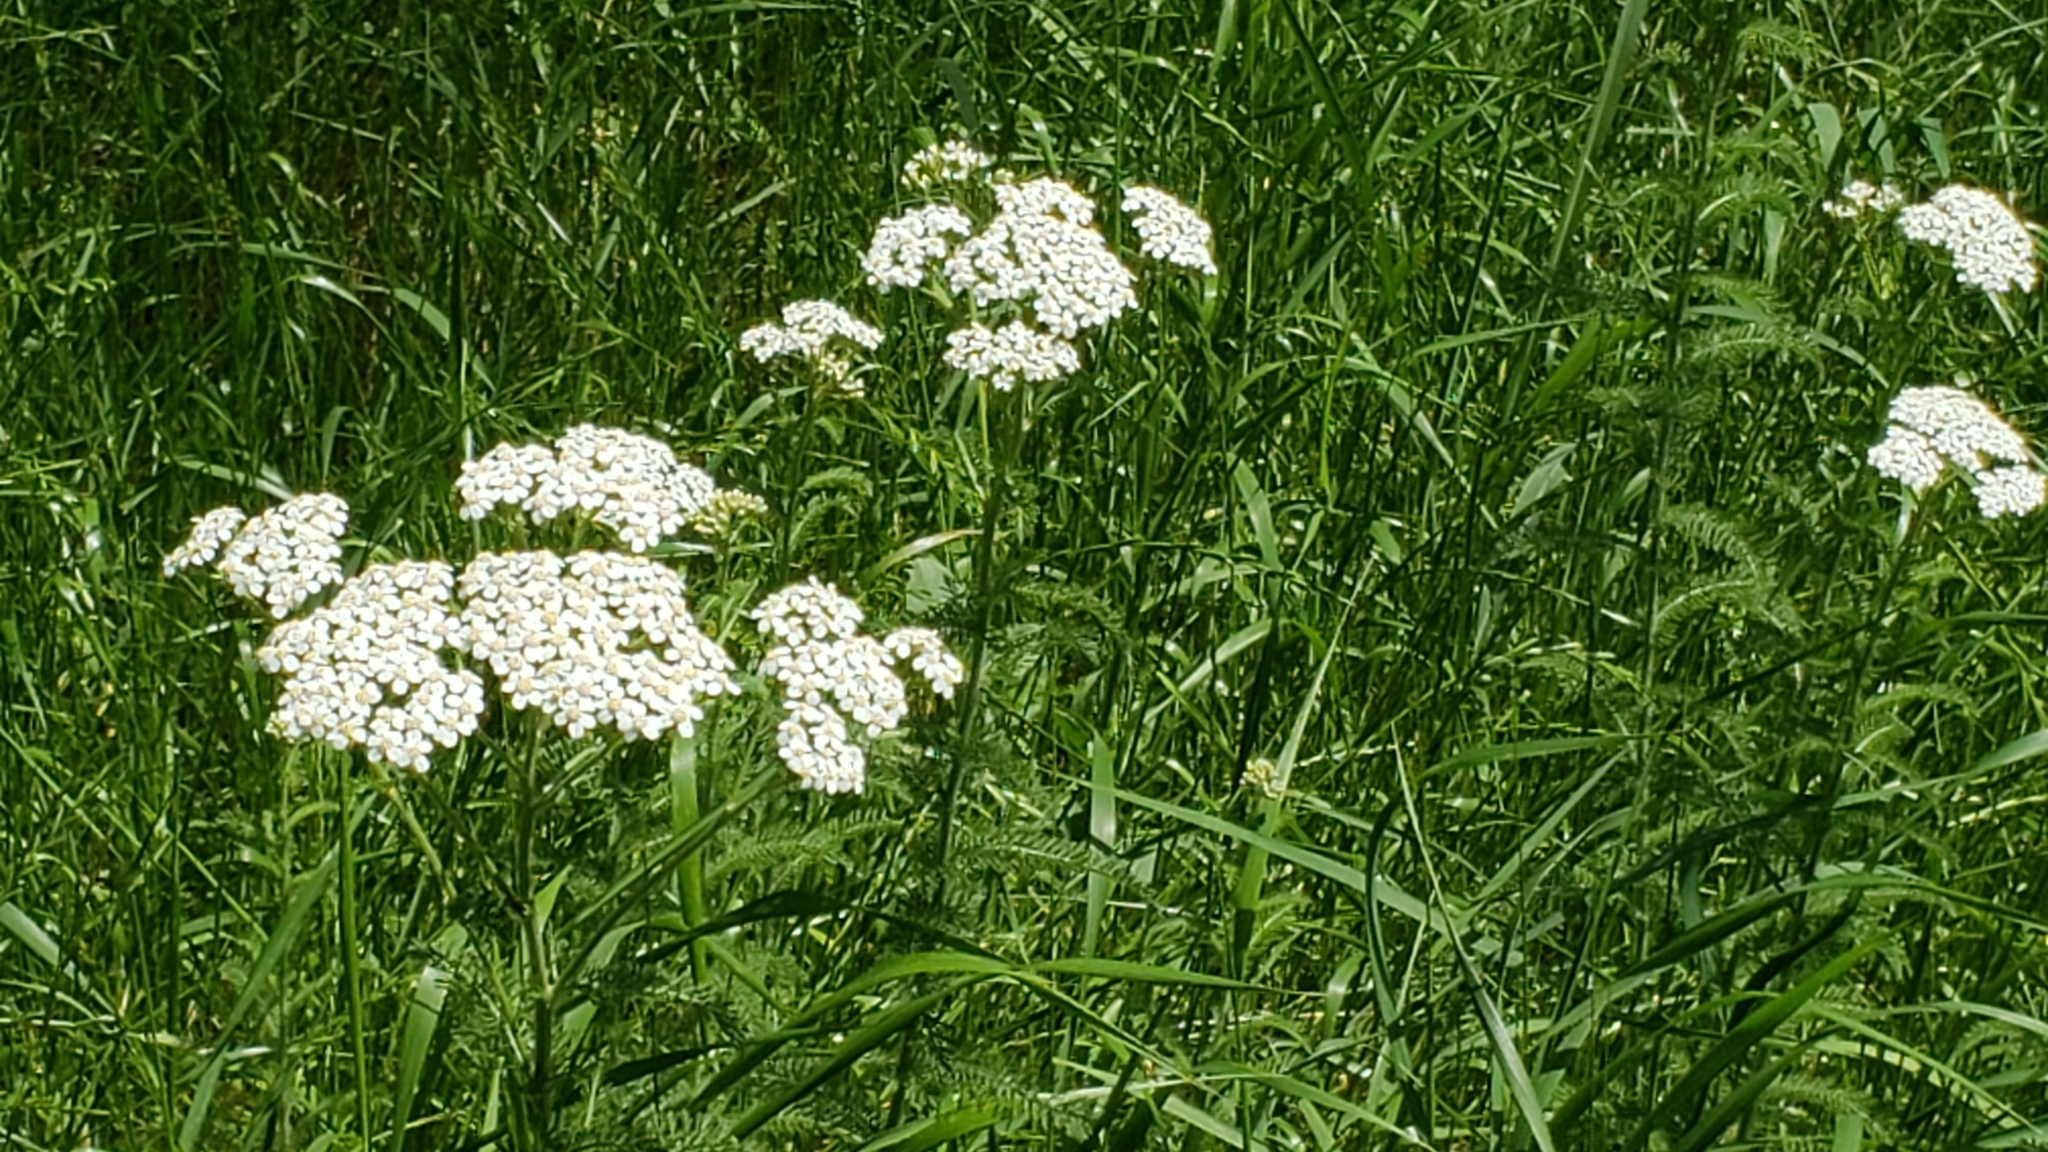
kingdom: Plantae
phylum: Tracheophyta
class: Magnoliopsida
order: Asterales
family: Asteraceae
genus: Achillea
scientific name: Achillea millefolium
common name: Yarrow
